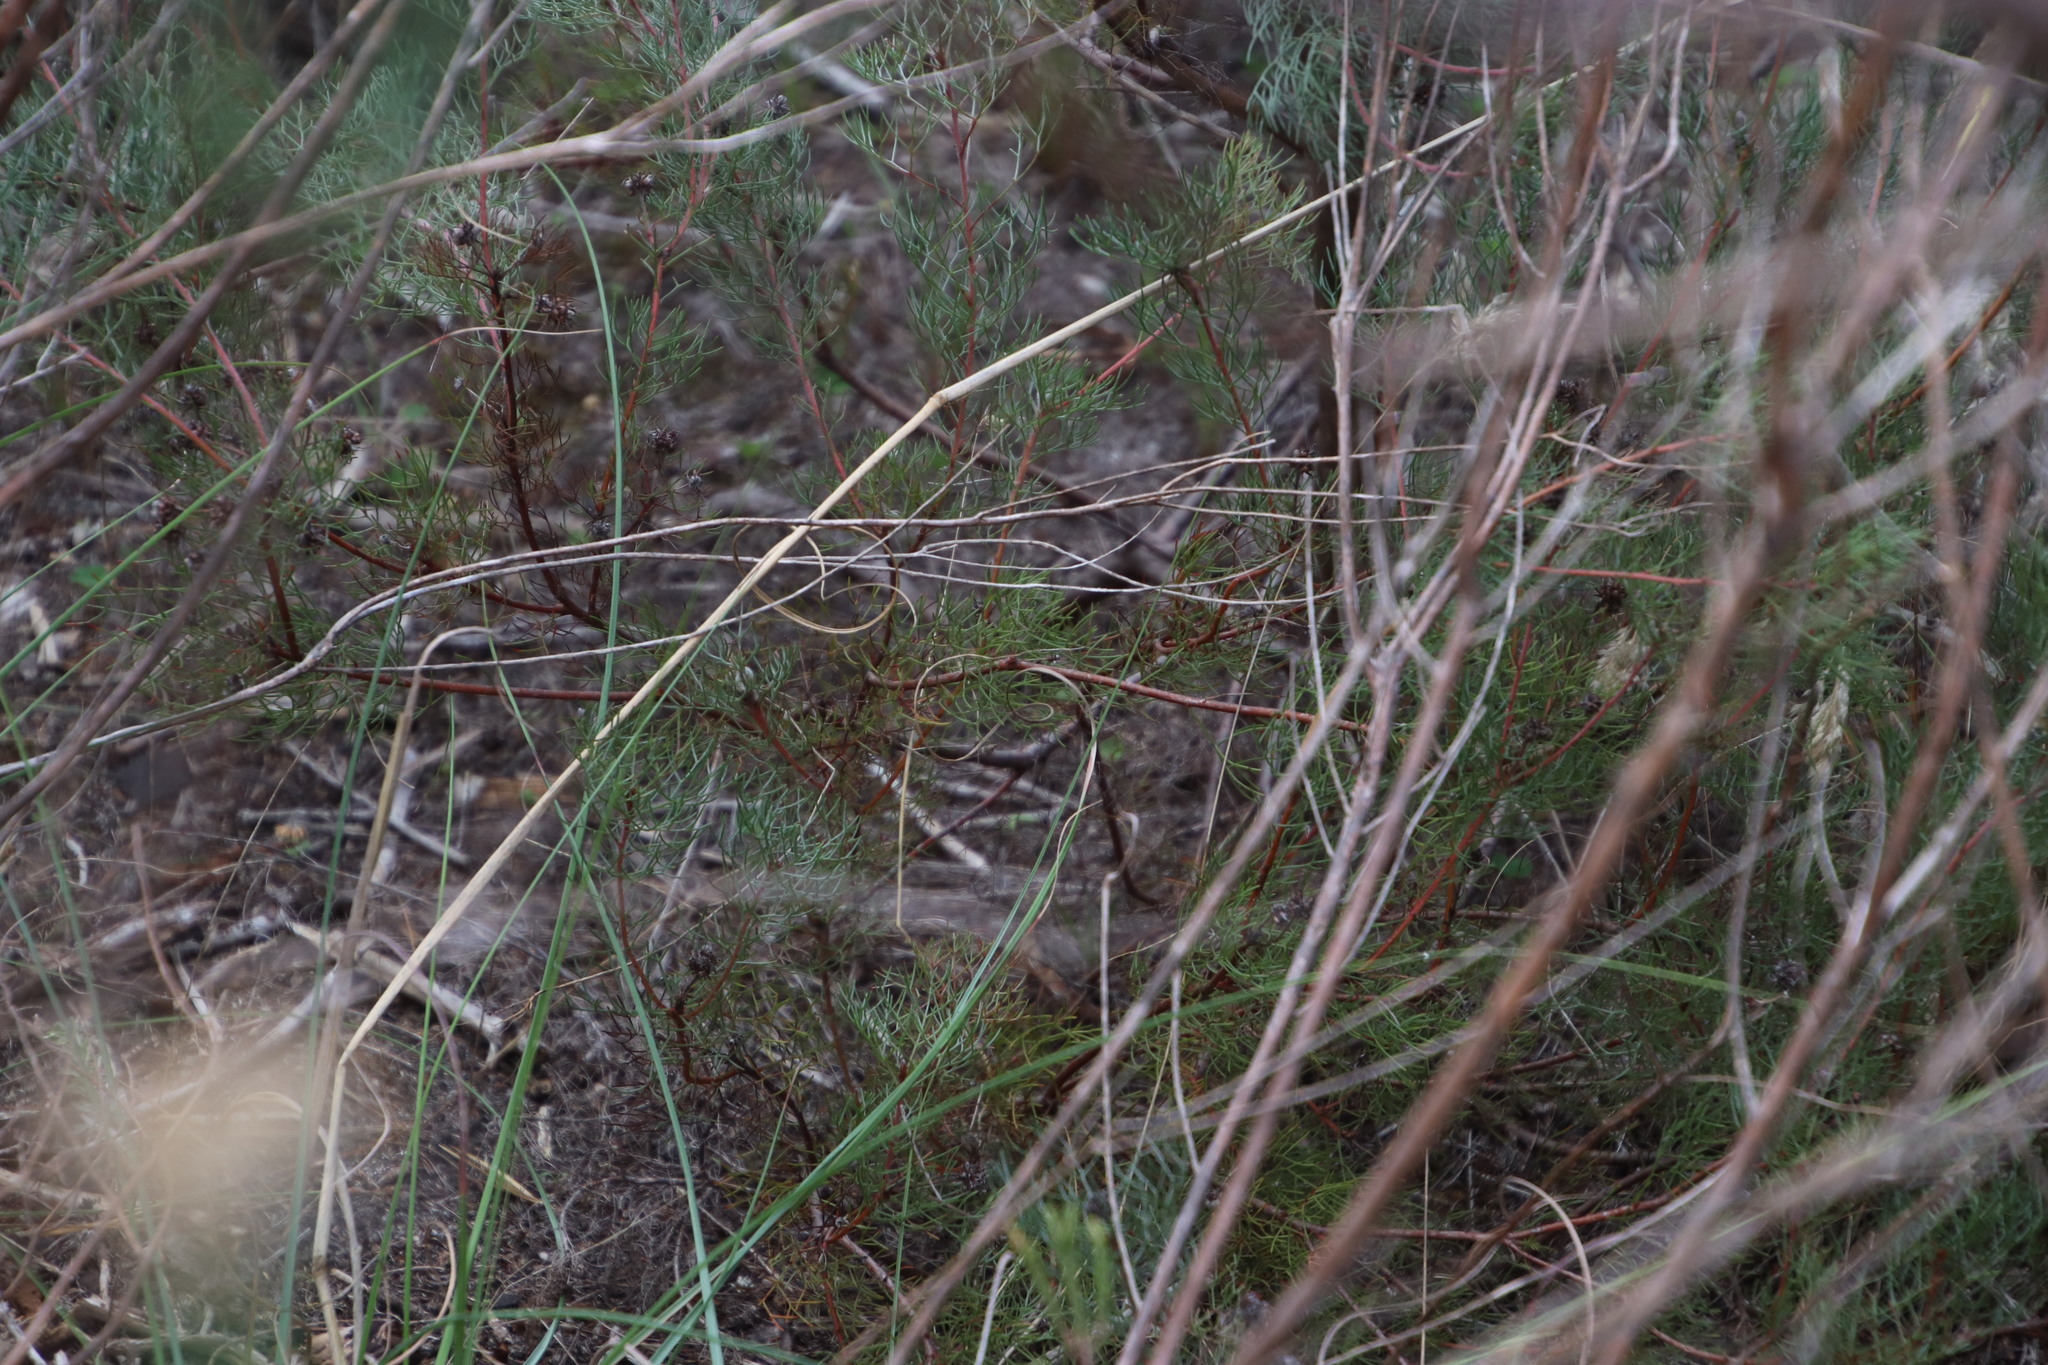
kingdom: Plantae
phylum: Tracheophyta
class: Magnoliopsida
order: Proteales
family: Proteaceae
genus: Serruria
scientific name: Serruria fasciflora
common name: Common pin spiderhead
